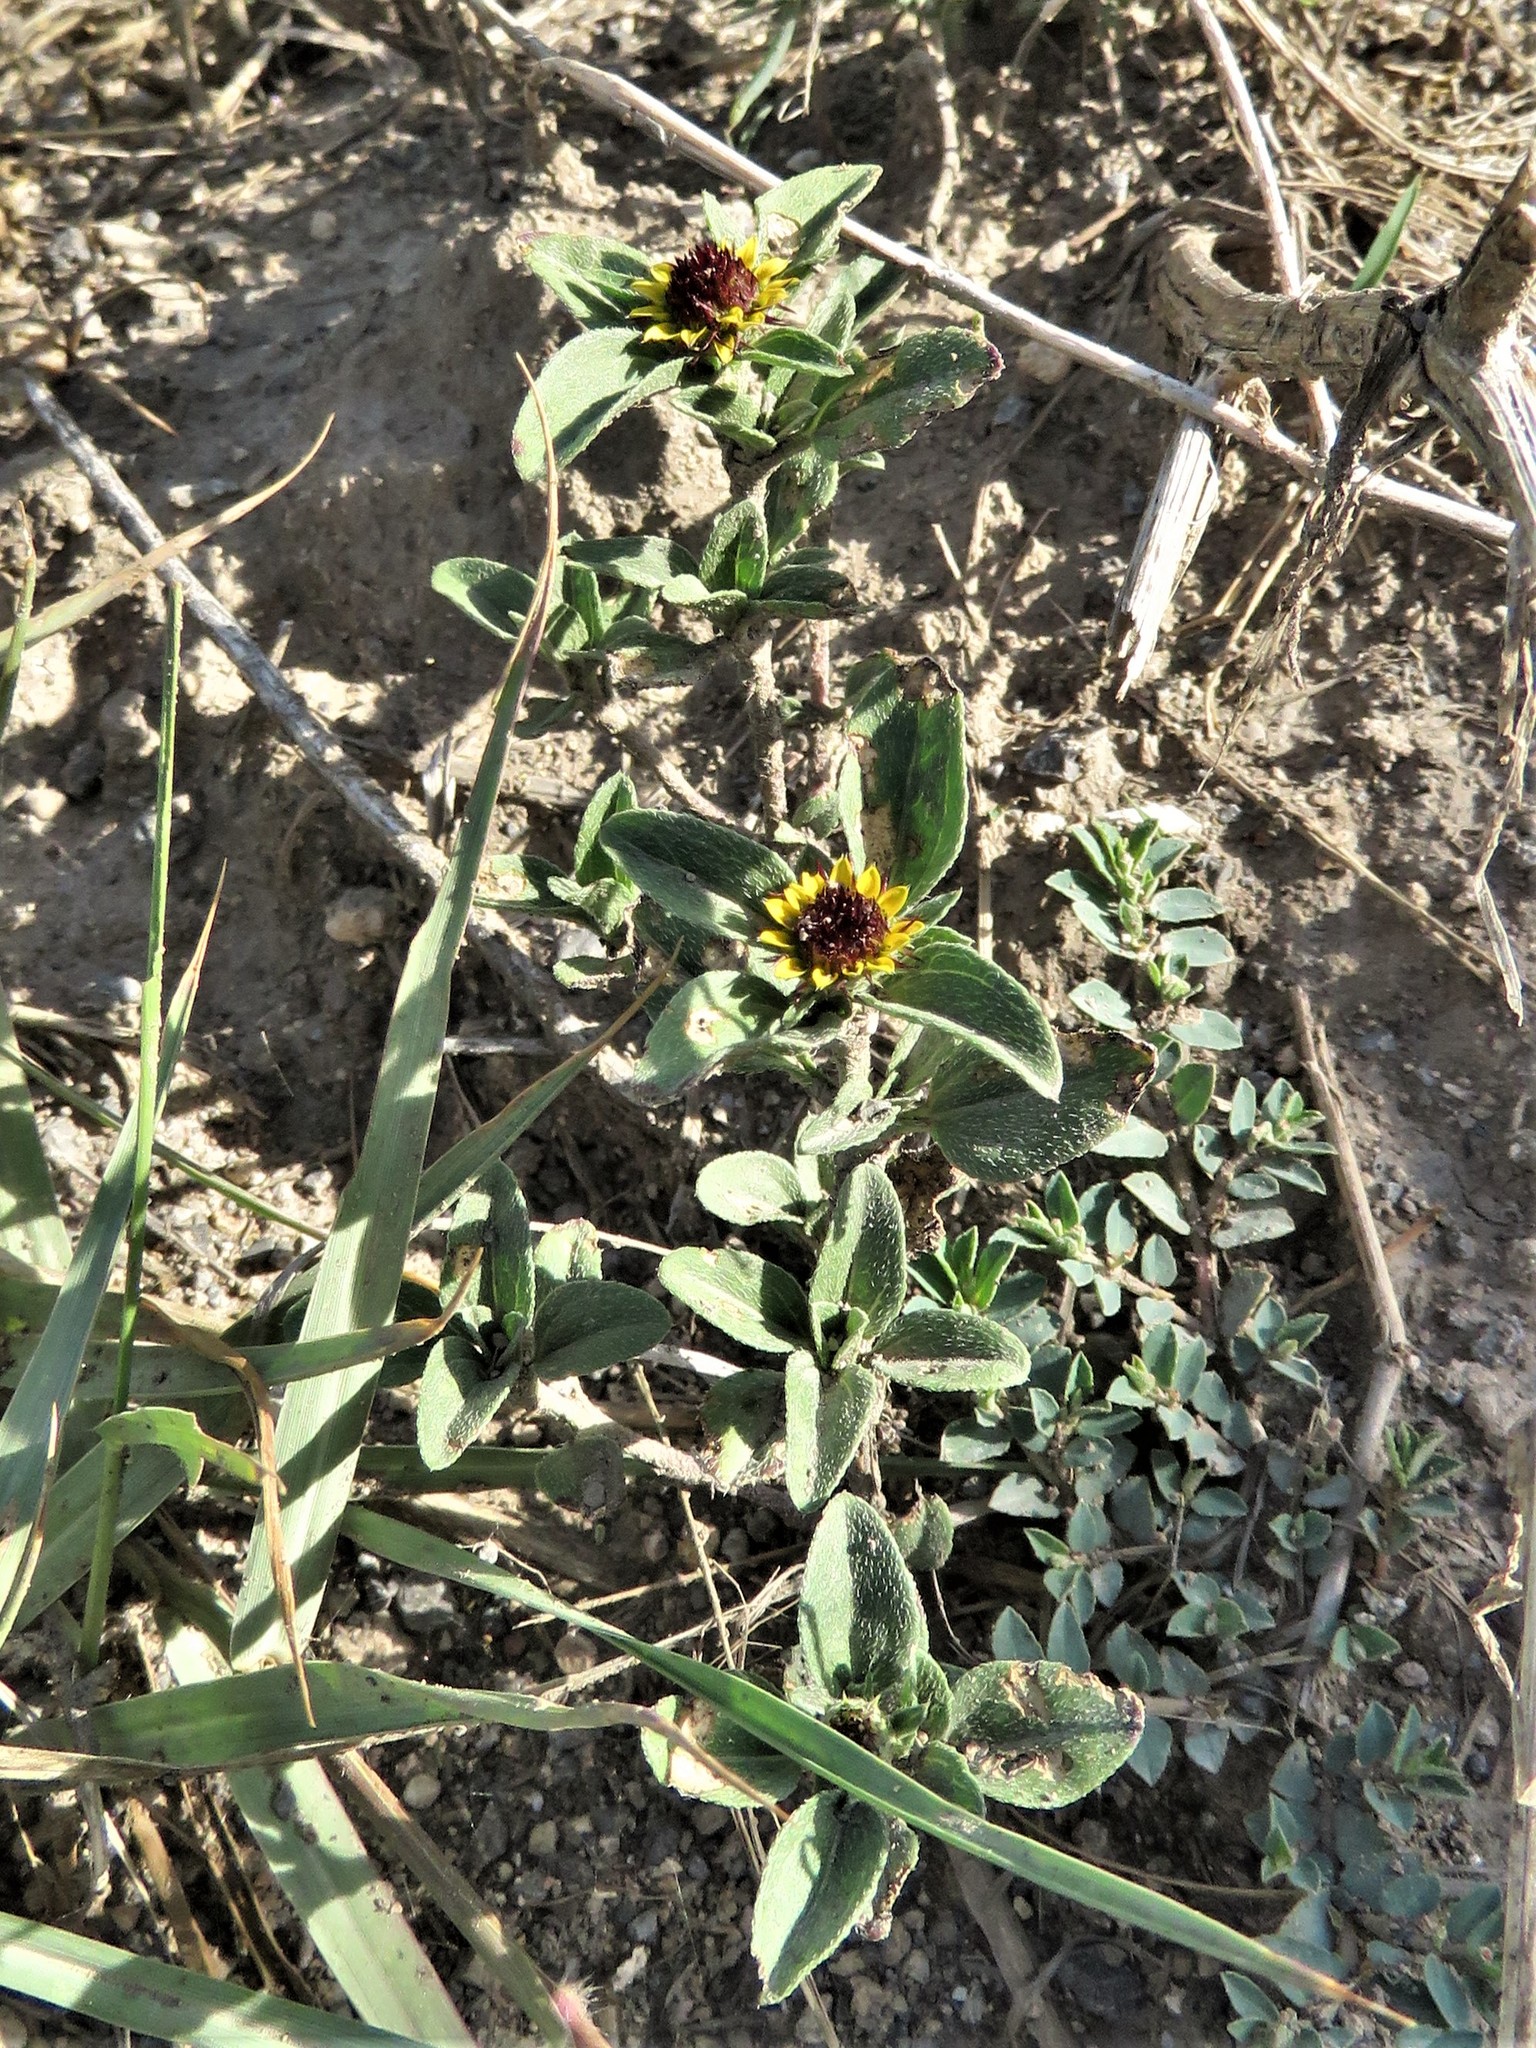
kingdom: Plantae
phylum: Tracheophyta
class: Magnoliopsida
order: Asterales
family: Asteraceae
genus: Sanvitalia
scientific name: Sanvitalia angustifolia
